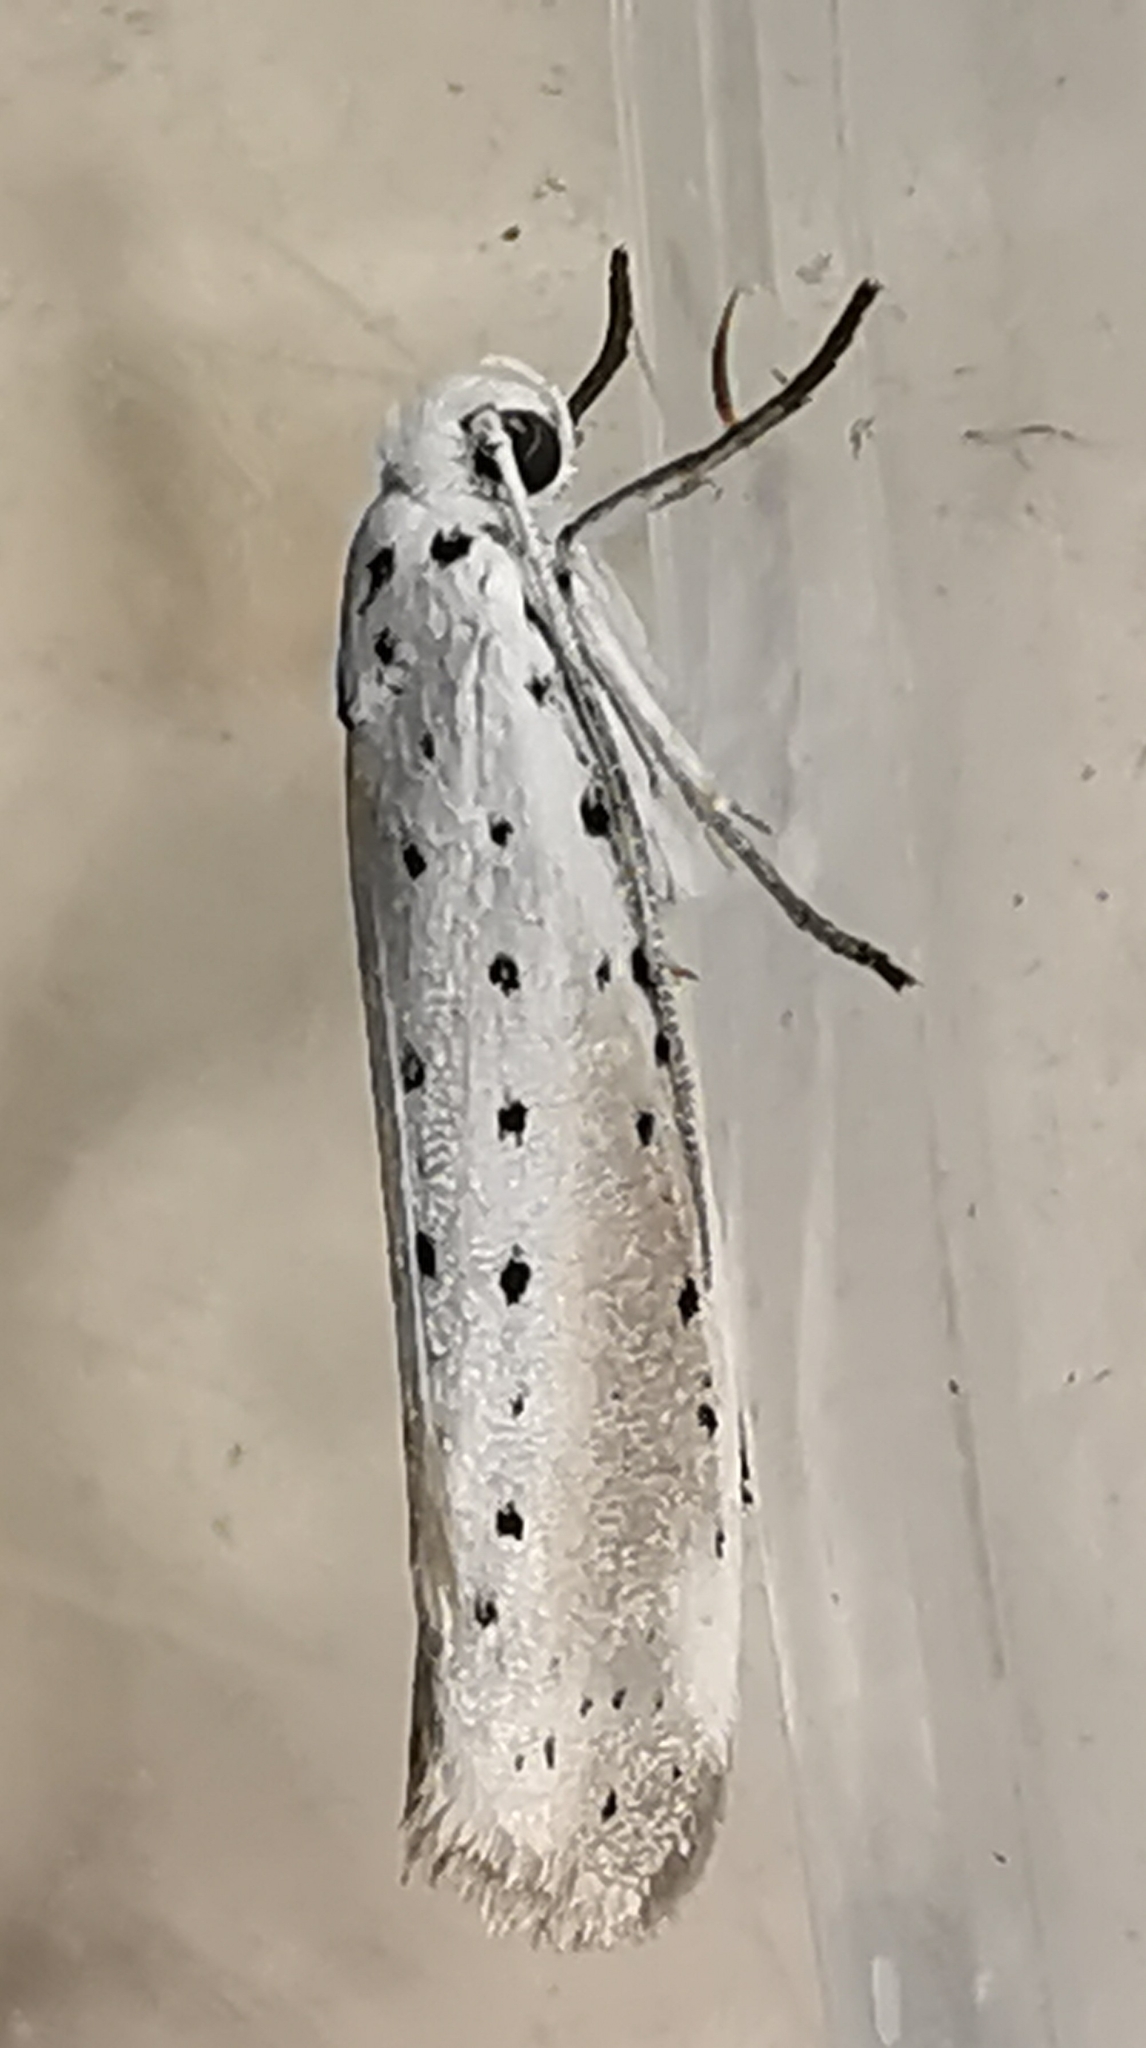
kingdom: Animalia
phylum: Arthropoda
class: Insecta
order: Lepidoptera
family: Yponomeutidae
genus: Yponomeuta
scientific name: Yponomeuta padella
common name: Orchard ermine
